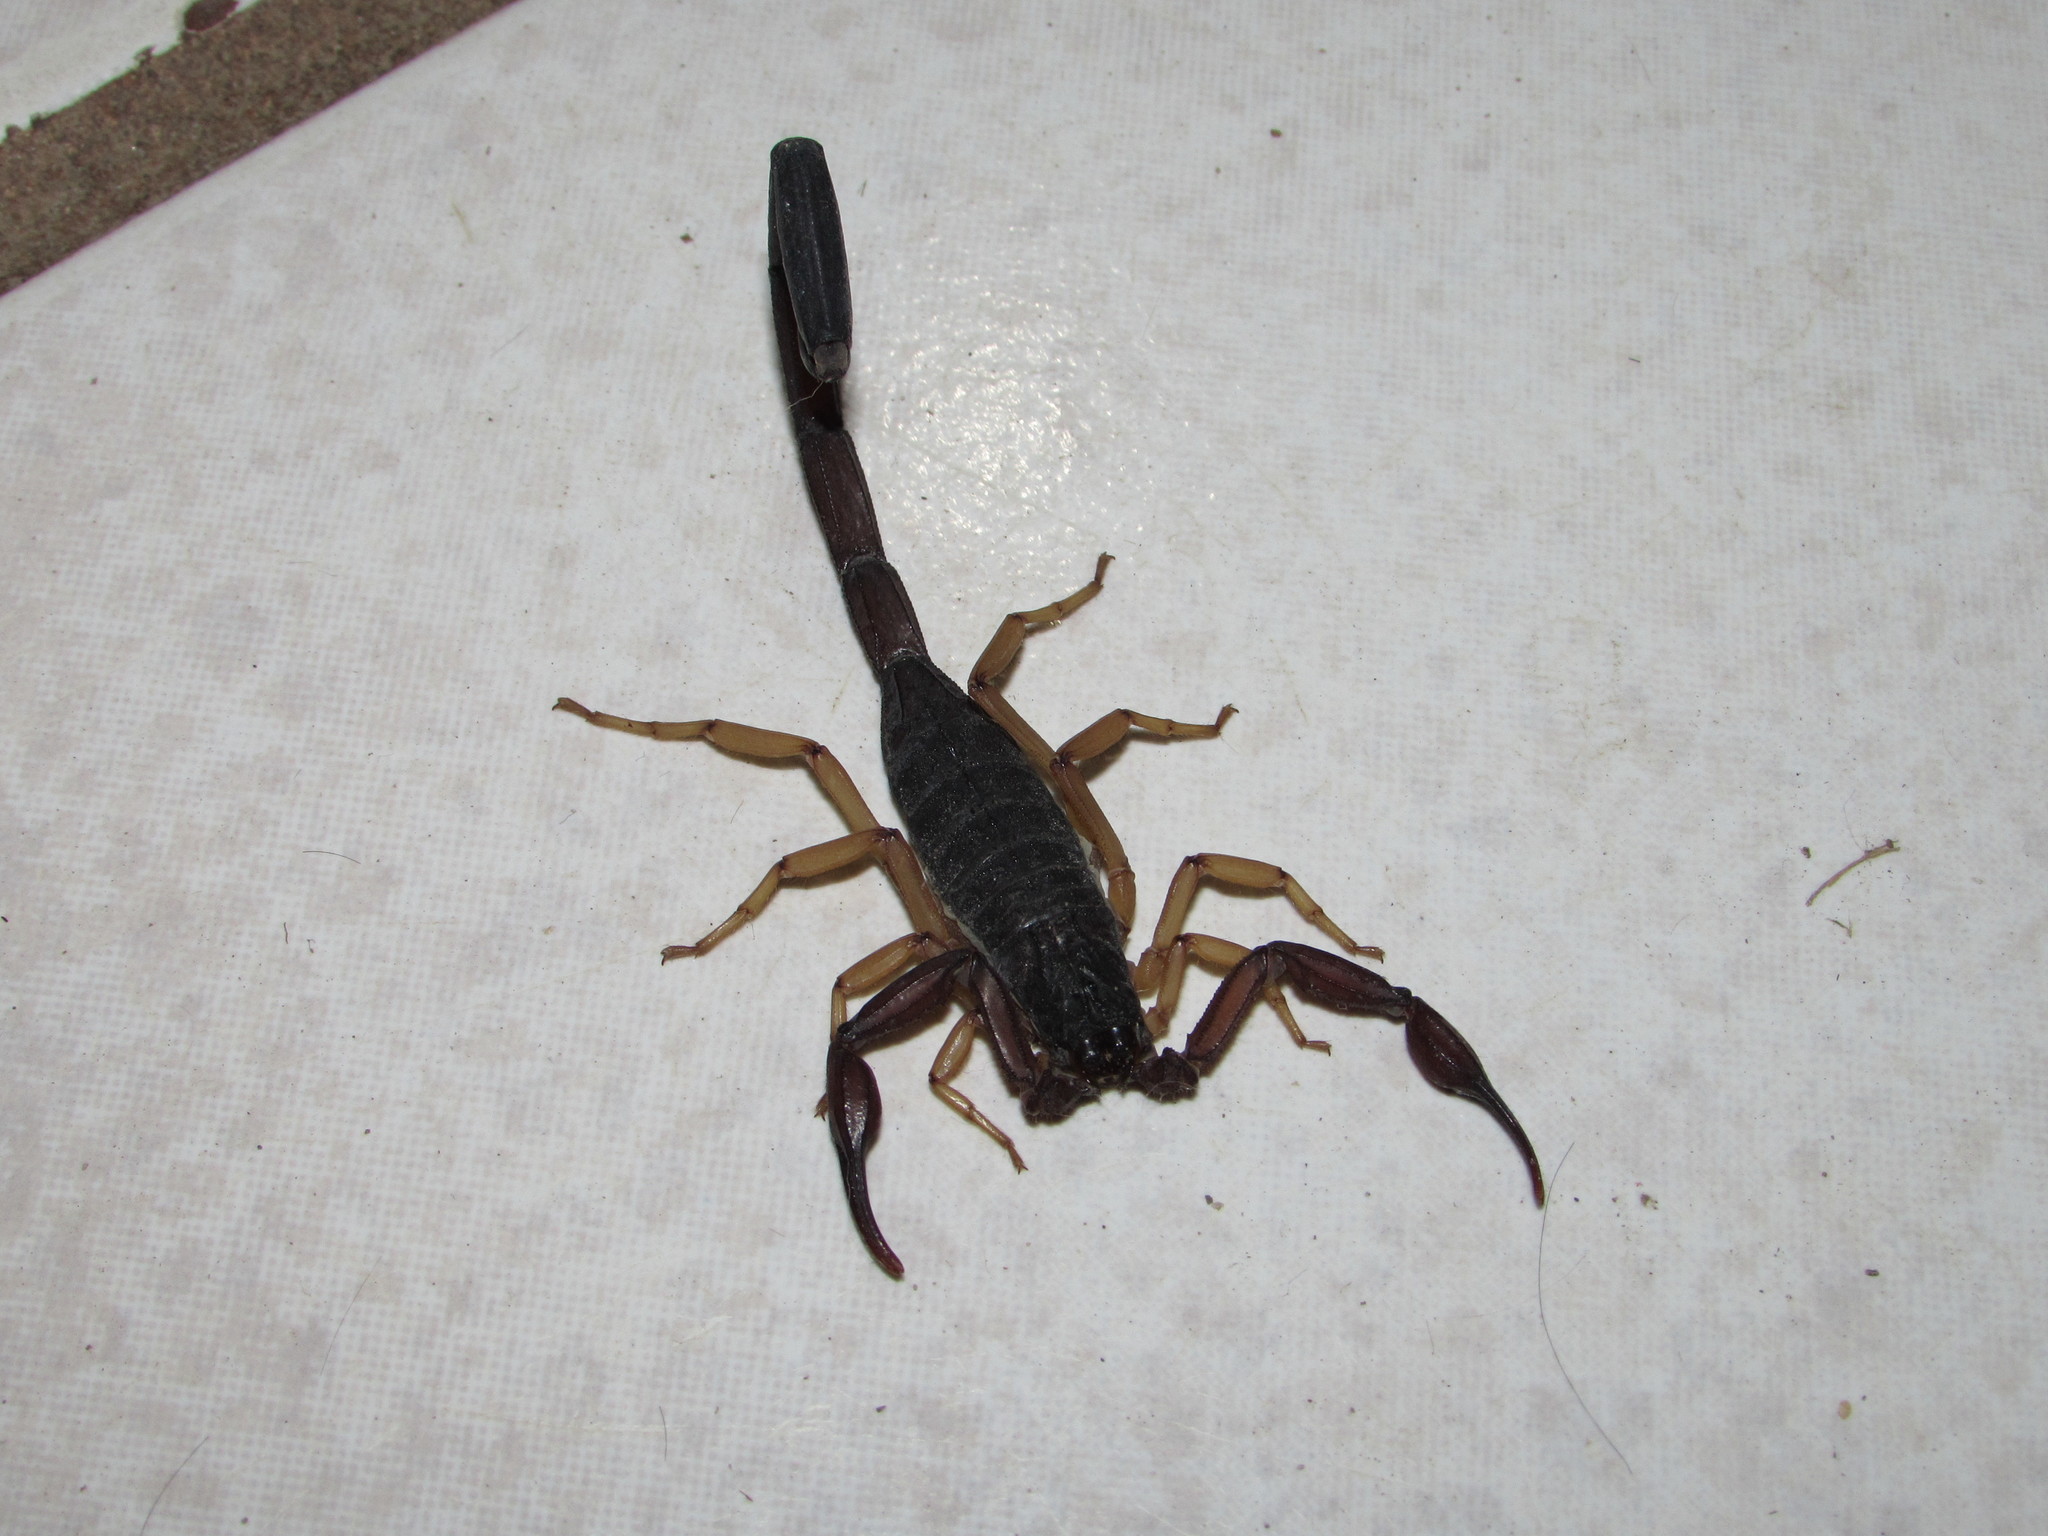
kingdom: Animalia
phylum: Arthropoda
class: Arachnida
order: Scorpiones
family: Buthidae
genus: Centruroides
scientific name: Centruroides gracilis
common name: Scorpions
